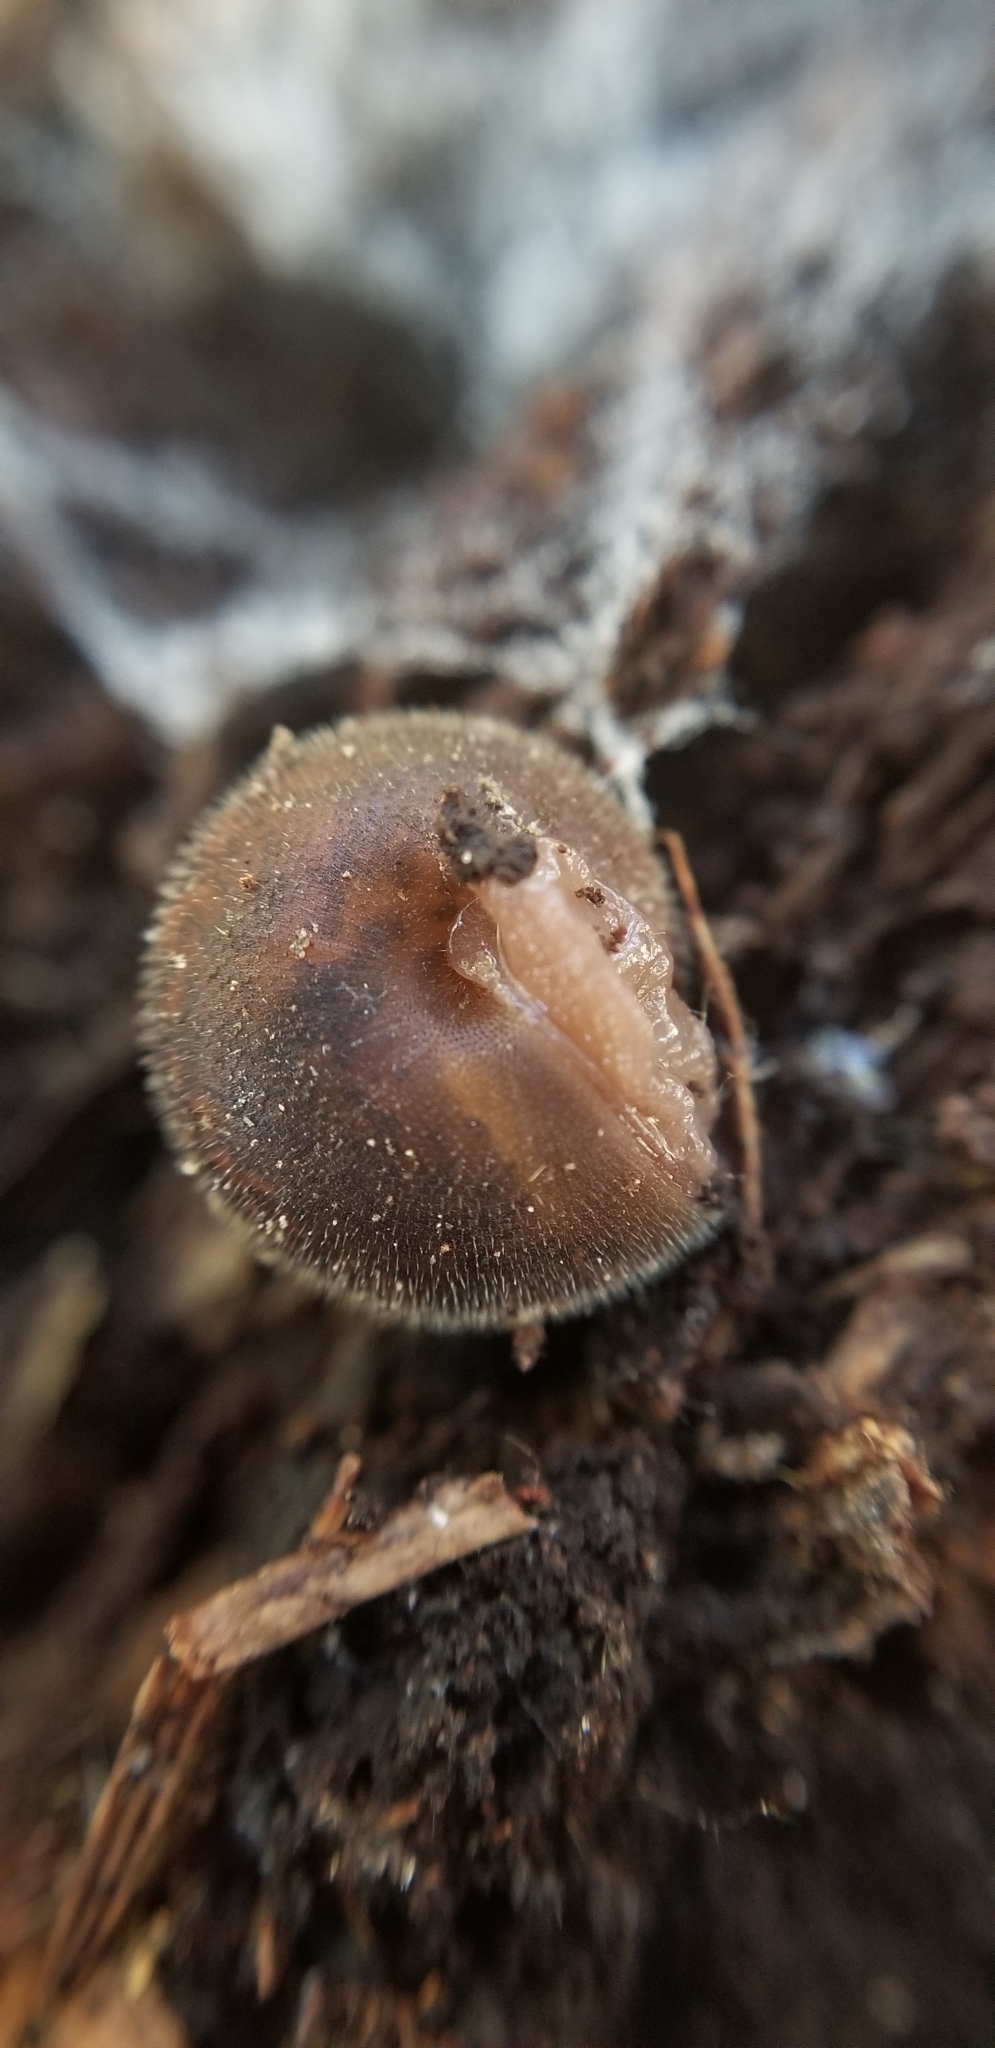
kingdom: Animalia
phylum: Mollusca
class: Gastropoda
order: Stylommatophora
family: Polygyridae
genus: Trilobopsis
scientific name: Trilobopsis loricata
